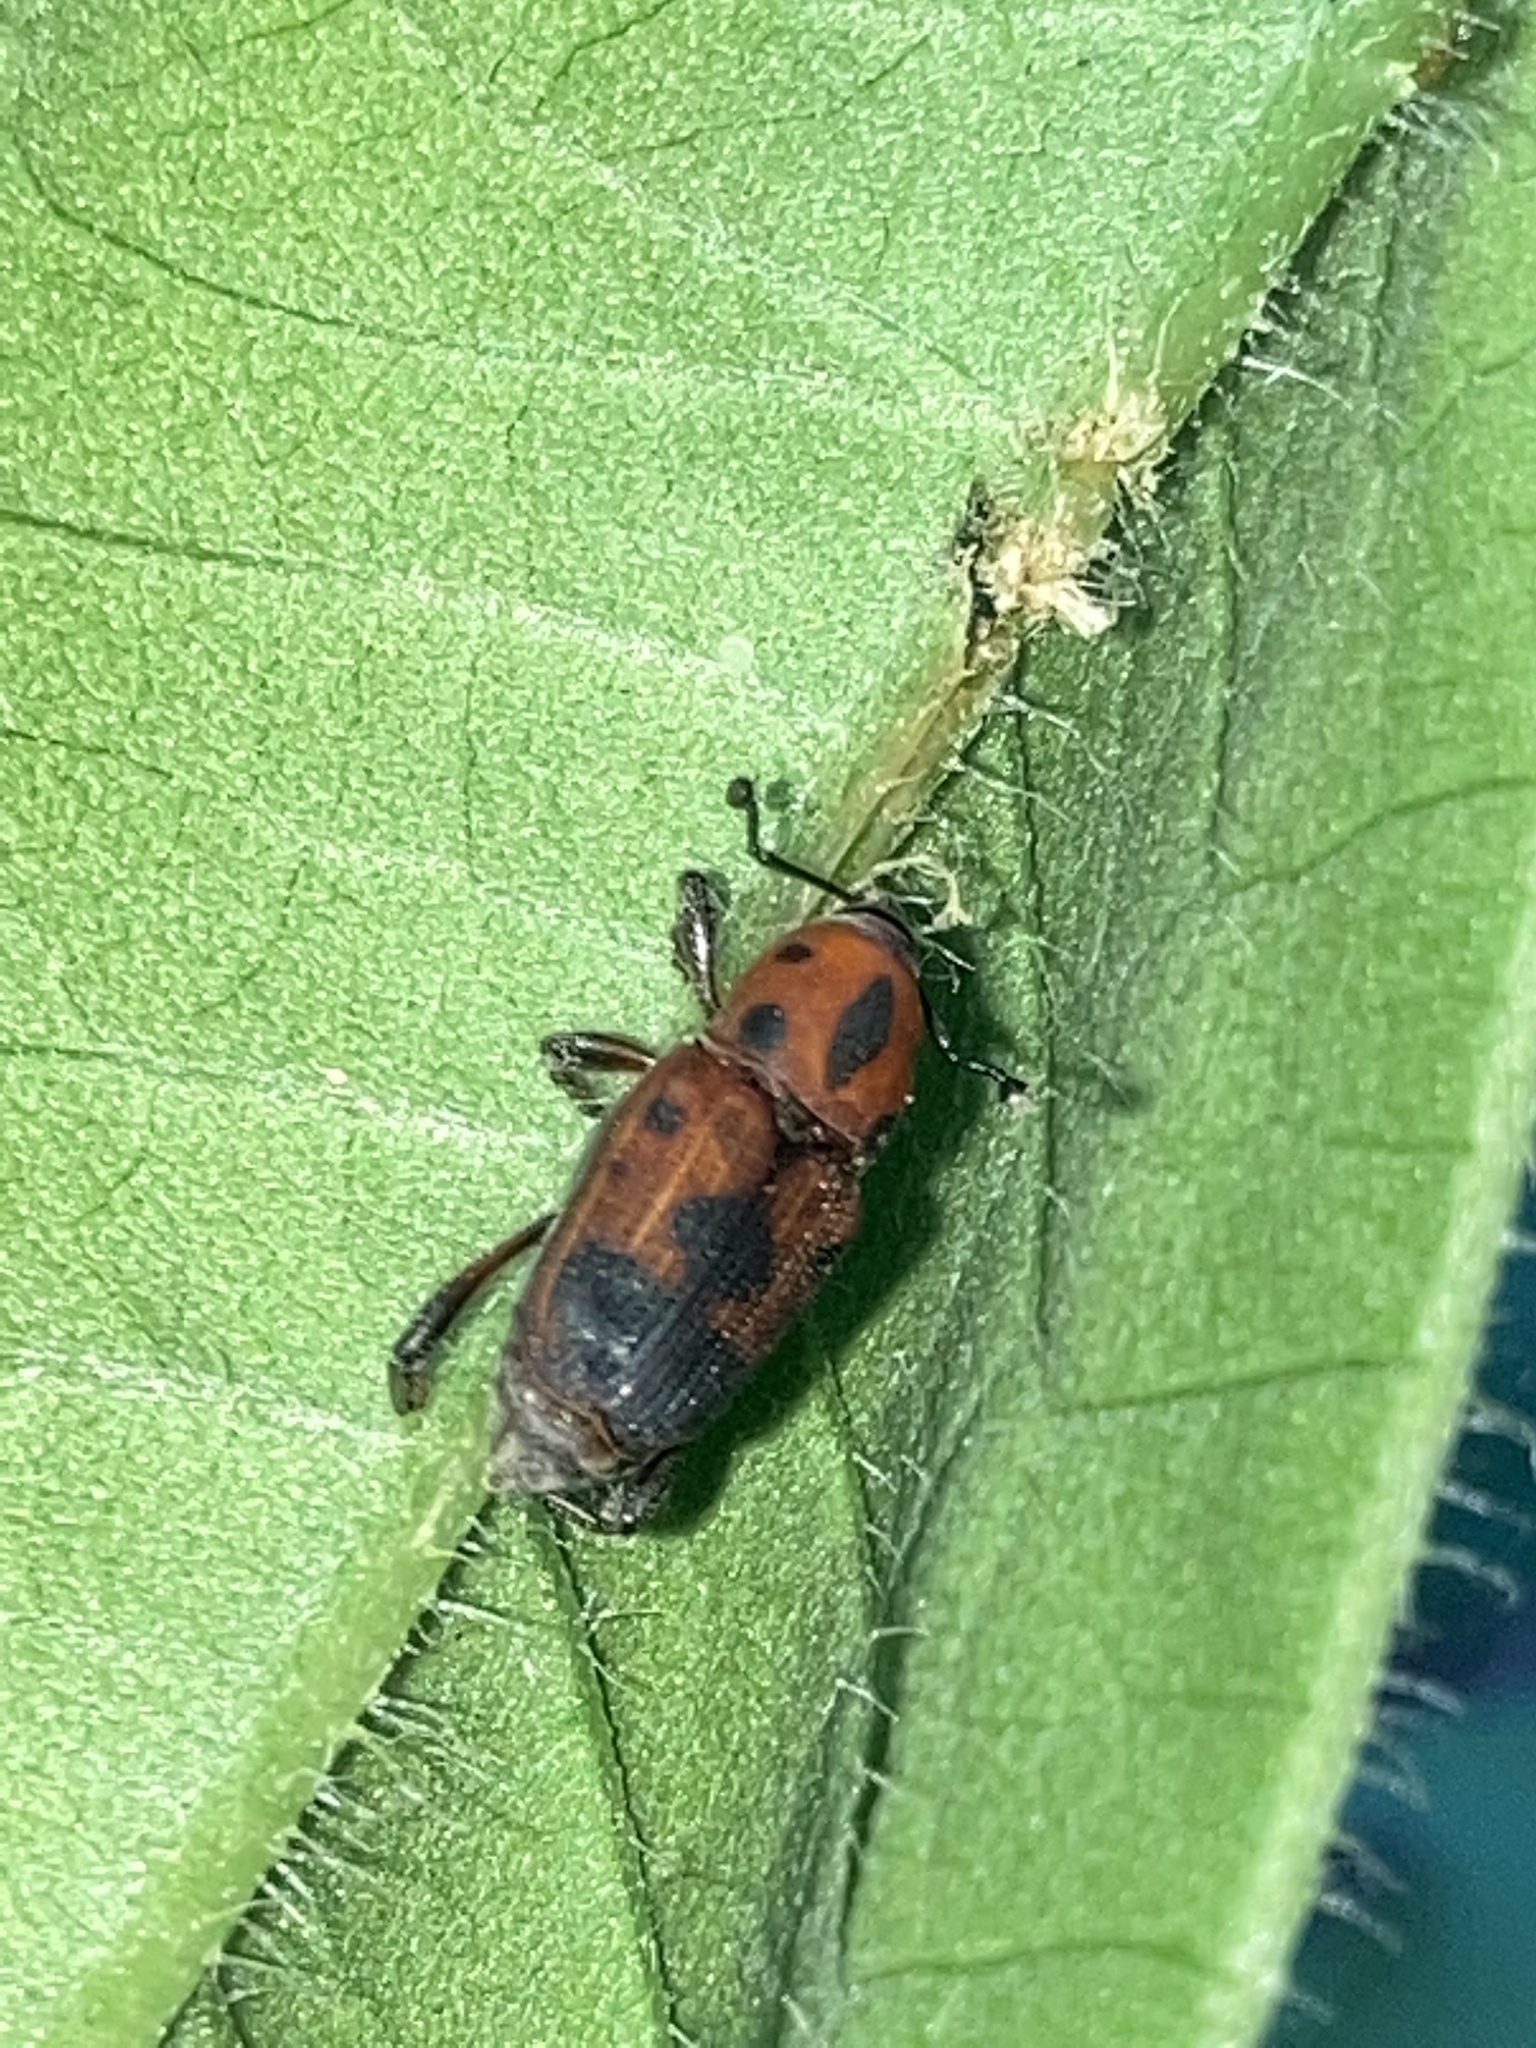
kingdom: Animalia
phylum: Arthropoda
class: Insecta
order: Coleoptera
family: Dryophthoridae
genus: Rhodobaenus
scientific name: Rhodobaenus quinquepunctatus
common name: Cocklebur weevil
